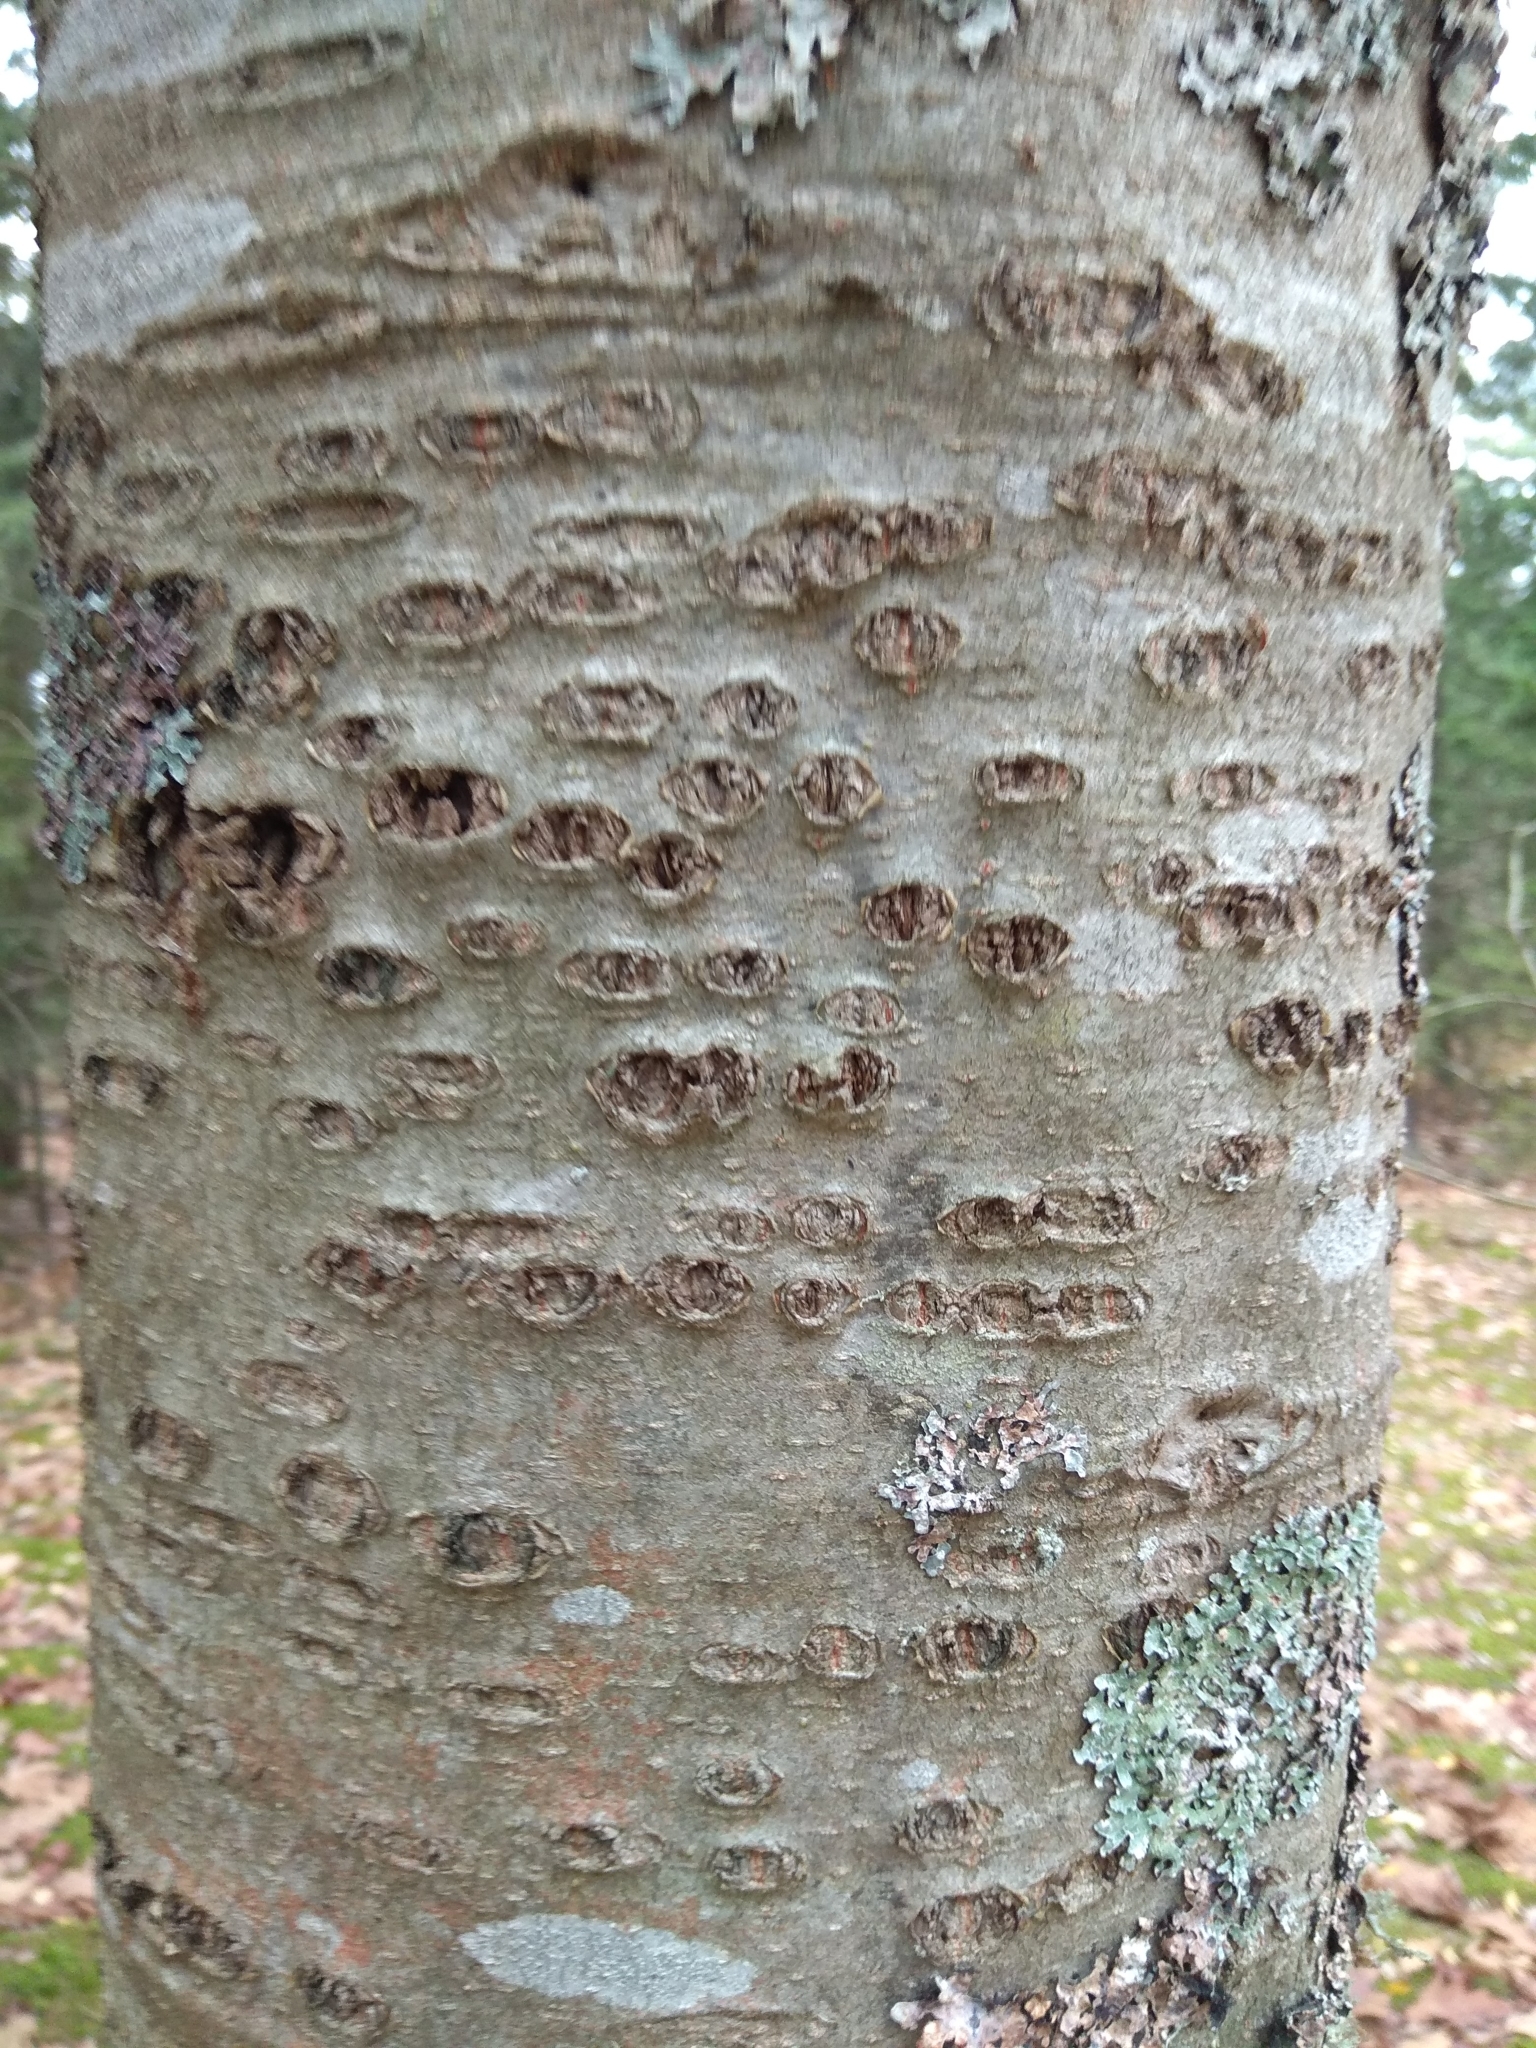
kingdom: Plantae
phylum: Tracheophyta
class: Magnoliopsida
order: Fagales
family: Fagaceae
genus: Quercus
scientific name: Quercus rubra
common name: Red oak
